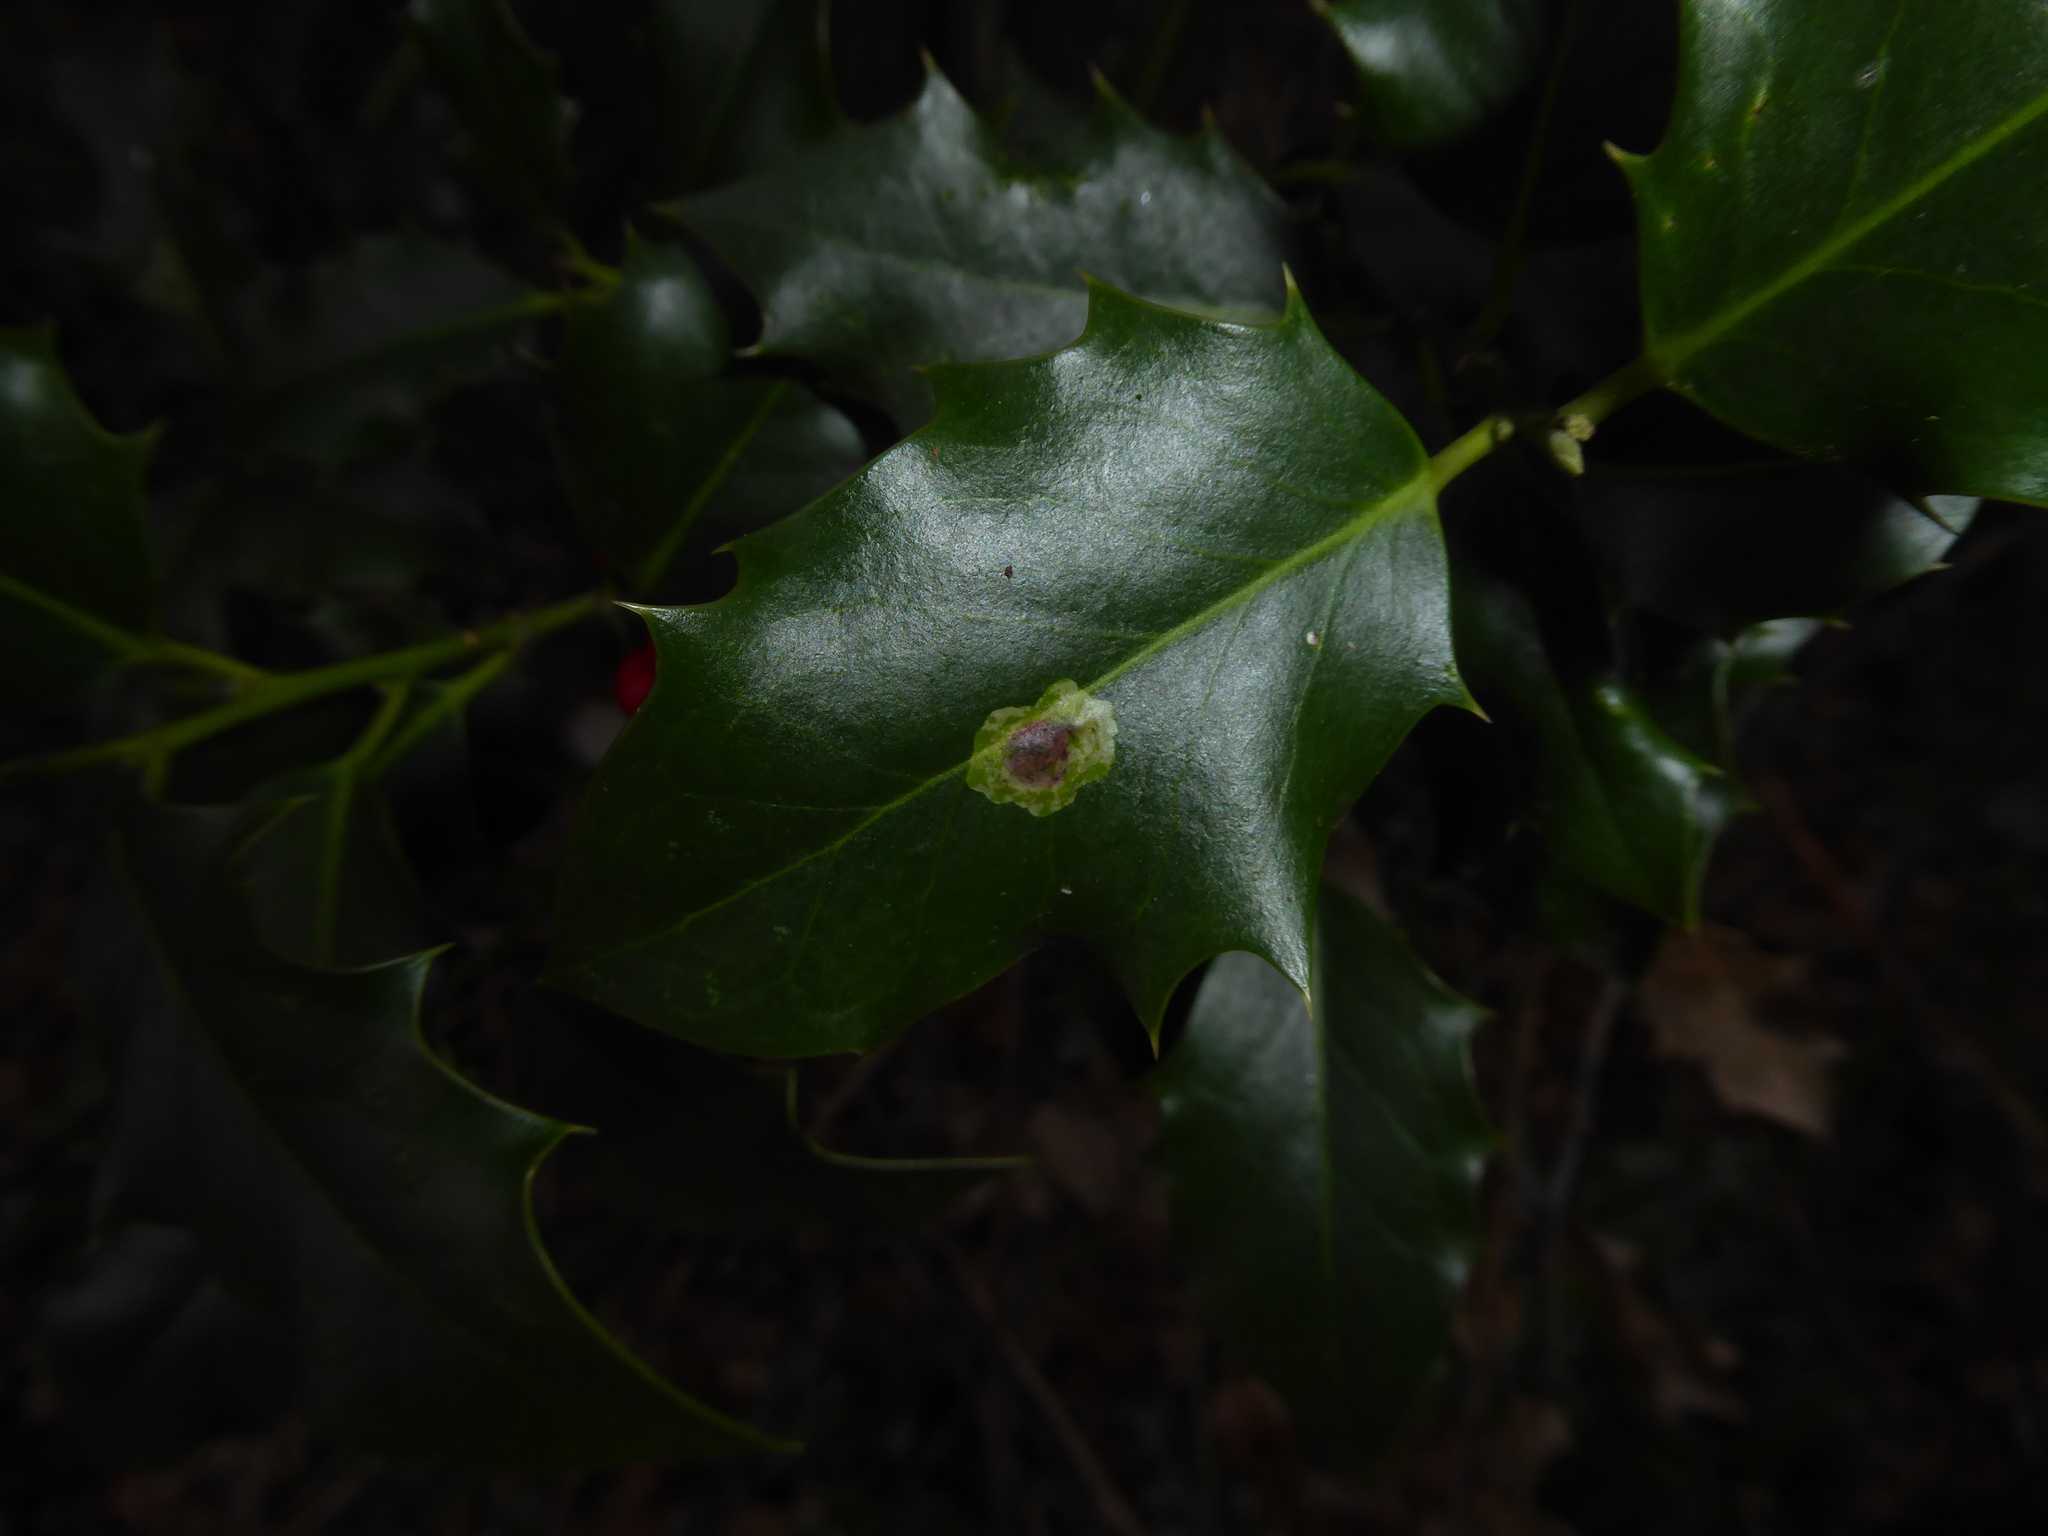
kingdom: Animalia
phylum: Arthropoda
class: Insecta
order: Diptera
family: Agromyzidae
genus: Phytomyza
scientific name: Phytomyza ilicis
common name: Holly leafminer
